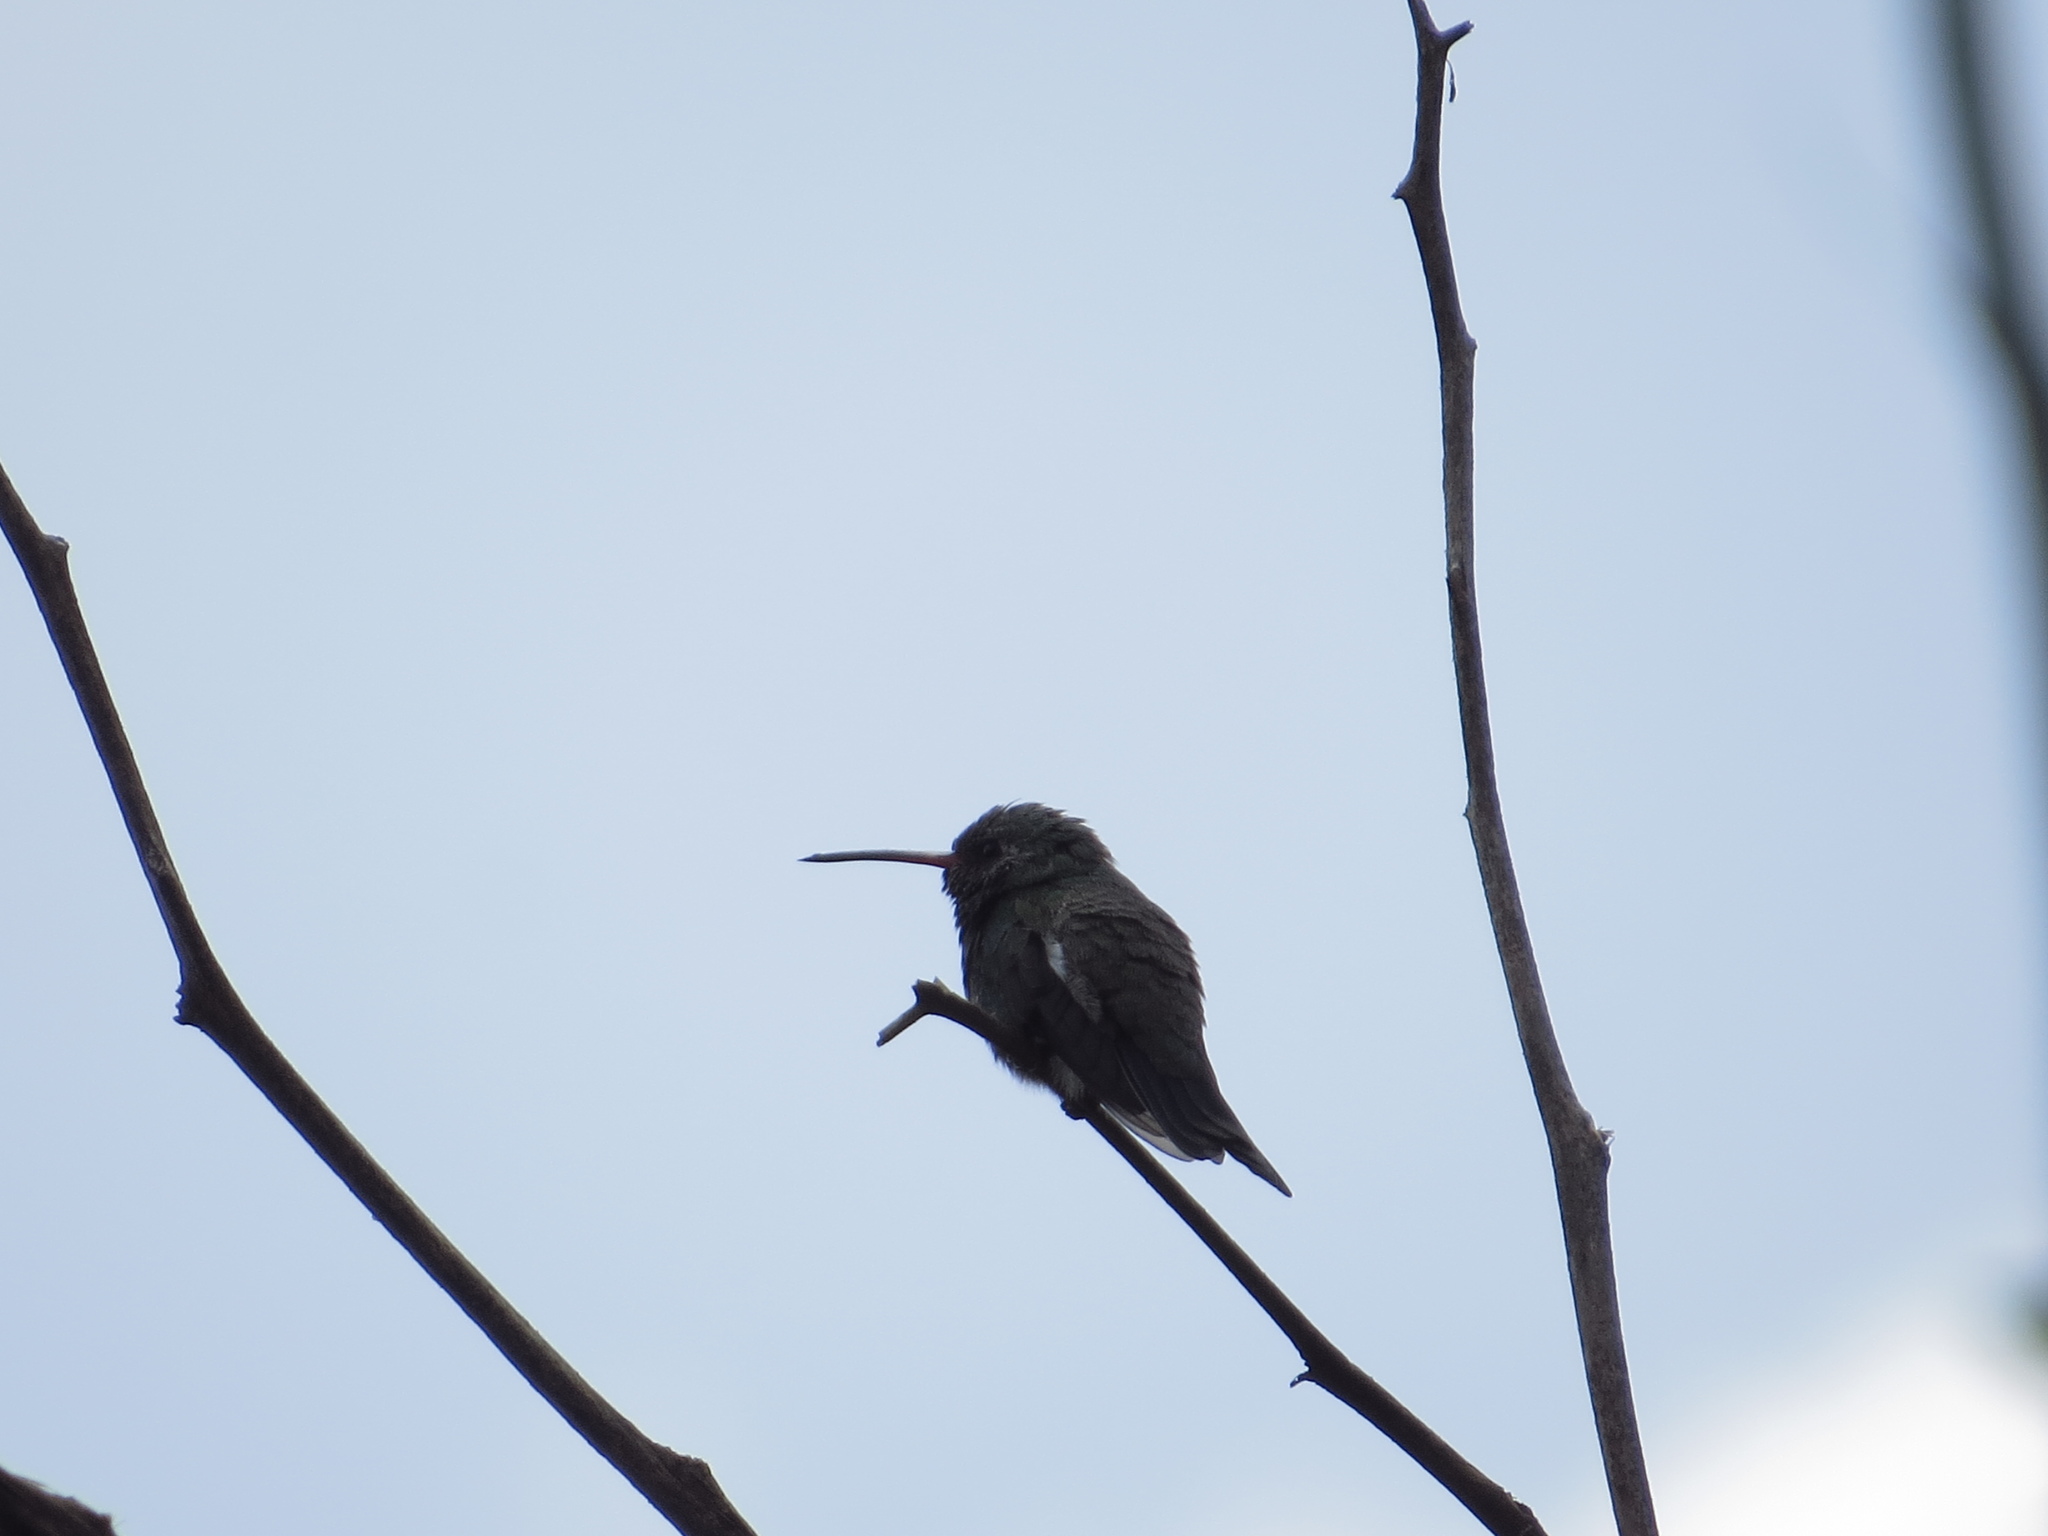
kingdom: Animalia
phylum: Chordata
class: Aves
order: Apodiformes
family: Trochilidae
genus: Cynanthus
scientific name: Cynanthus latirostris
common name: Broad-billed hummingbird
